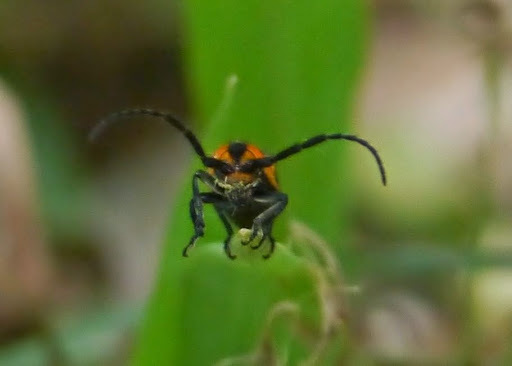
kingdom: Animalia
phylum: Arthropoda
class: Insecta
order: Coleoptera
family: Cerambycidae
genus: Hemierana
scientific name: Hemierana marginata
